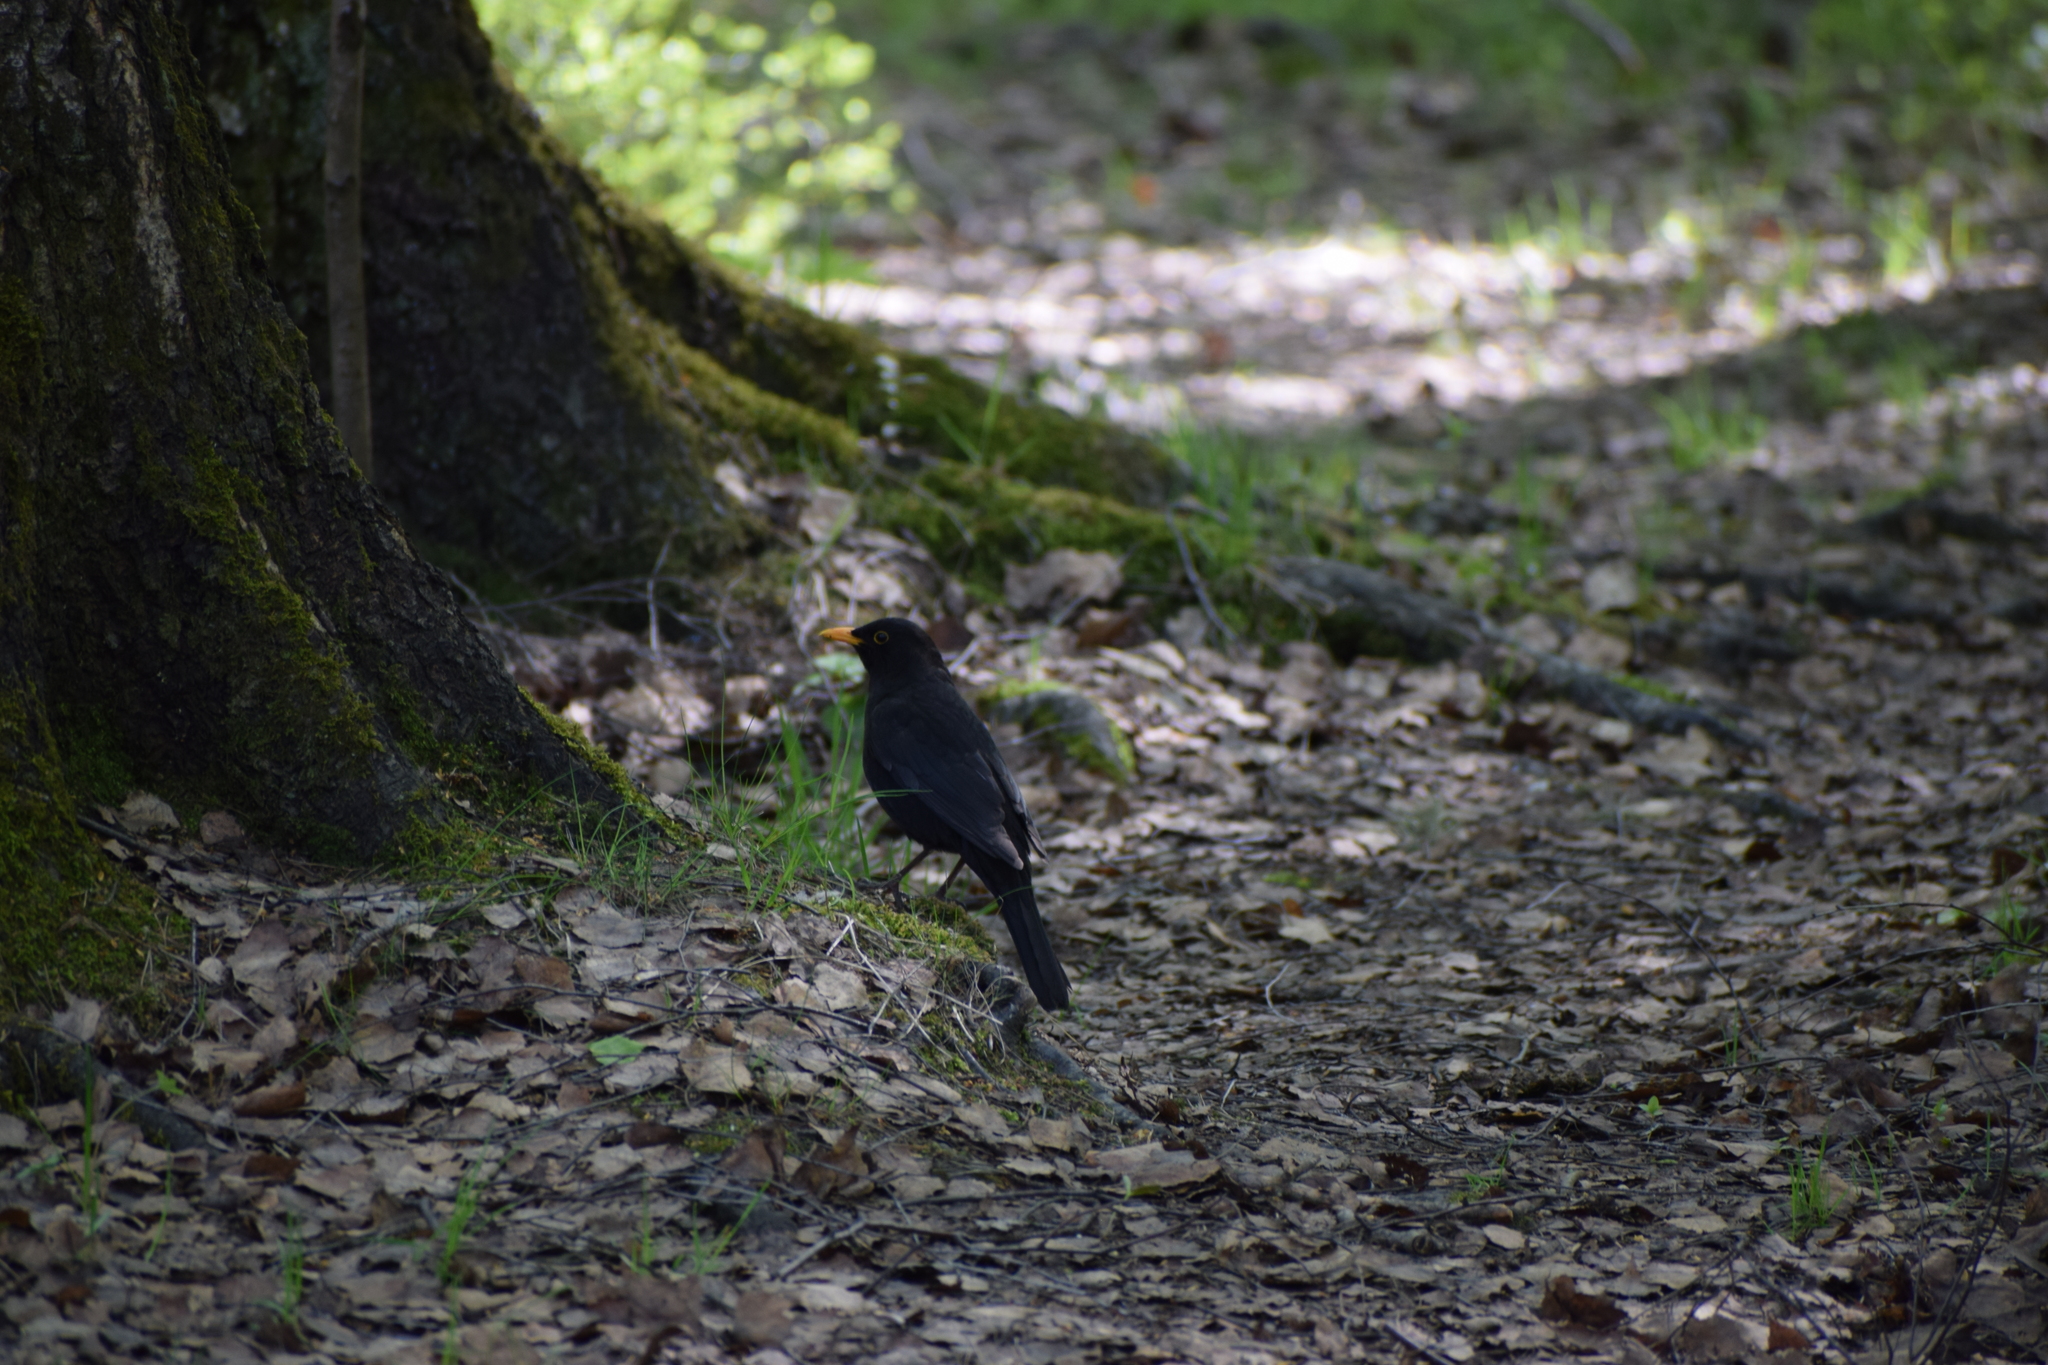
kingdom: Animalia
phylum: Chordata
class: Aves
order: Passeriformes
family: Turdidae
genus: Turdus
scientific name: Turdus merula
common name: Common blackbird
